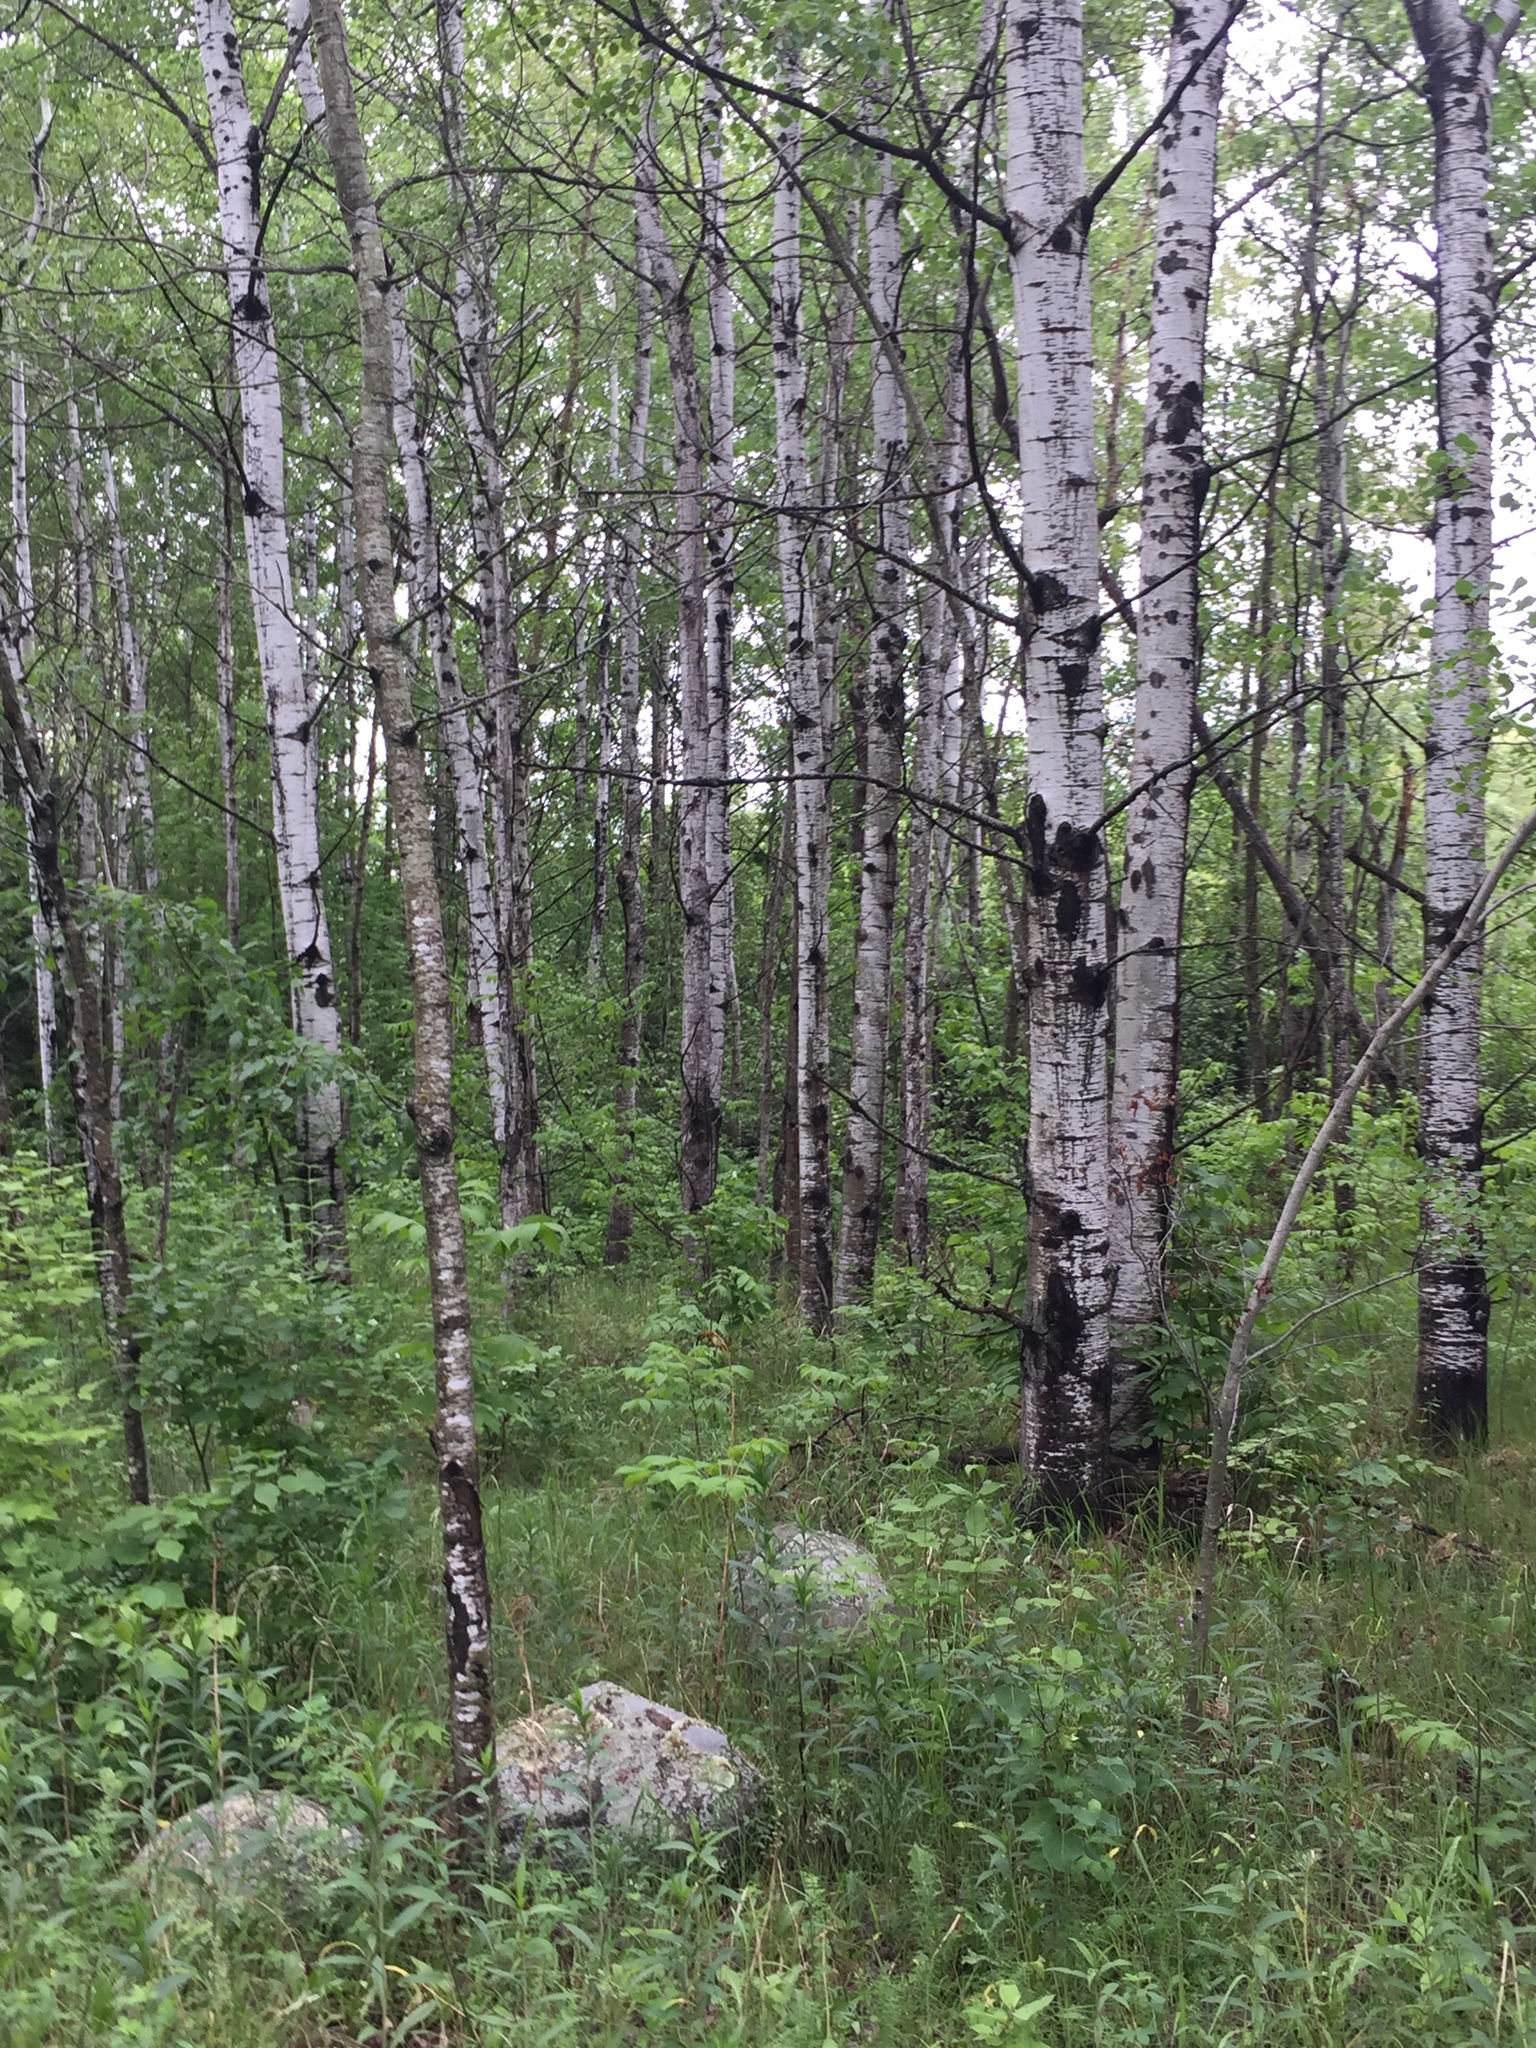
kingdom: Plantae
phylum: Tracheophyta
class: Magnoliopsida
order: Malpighiales
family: Salicaceae
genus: Populus
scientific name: Populus tremuloides
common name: Quaking aspen
